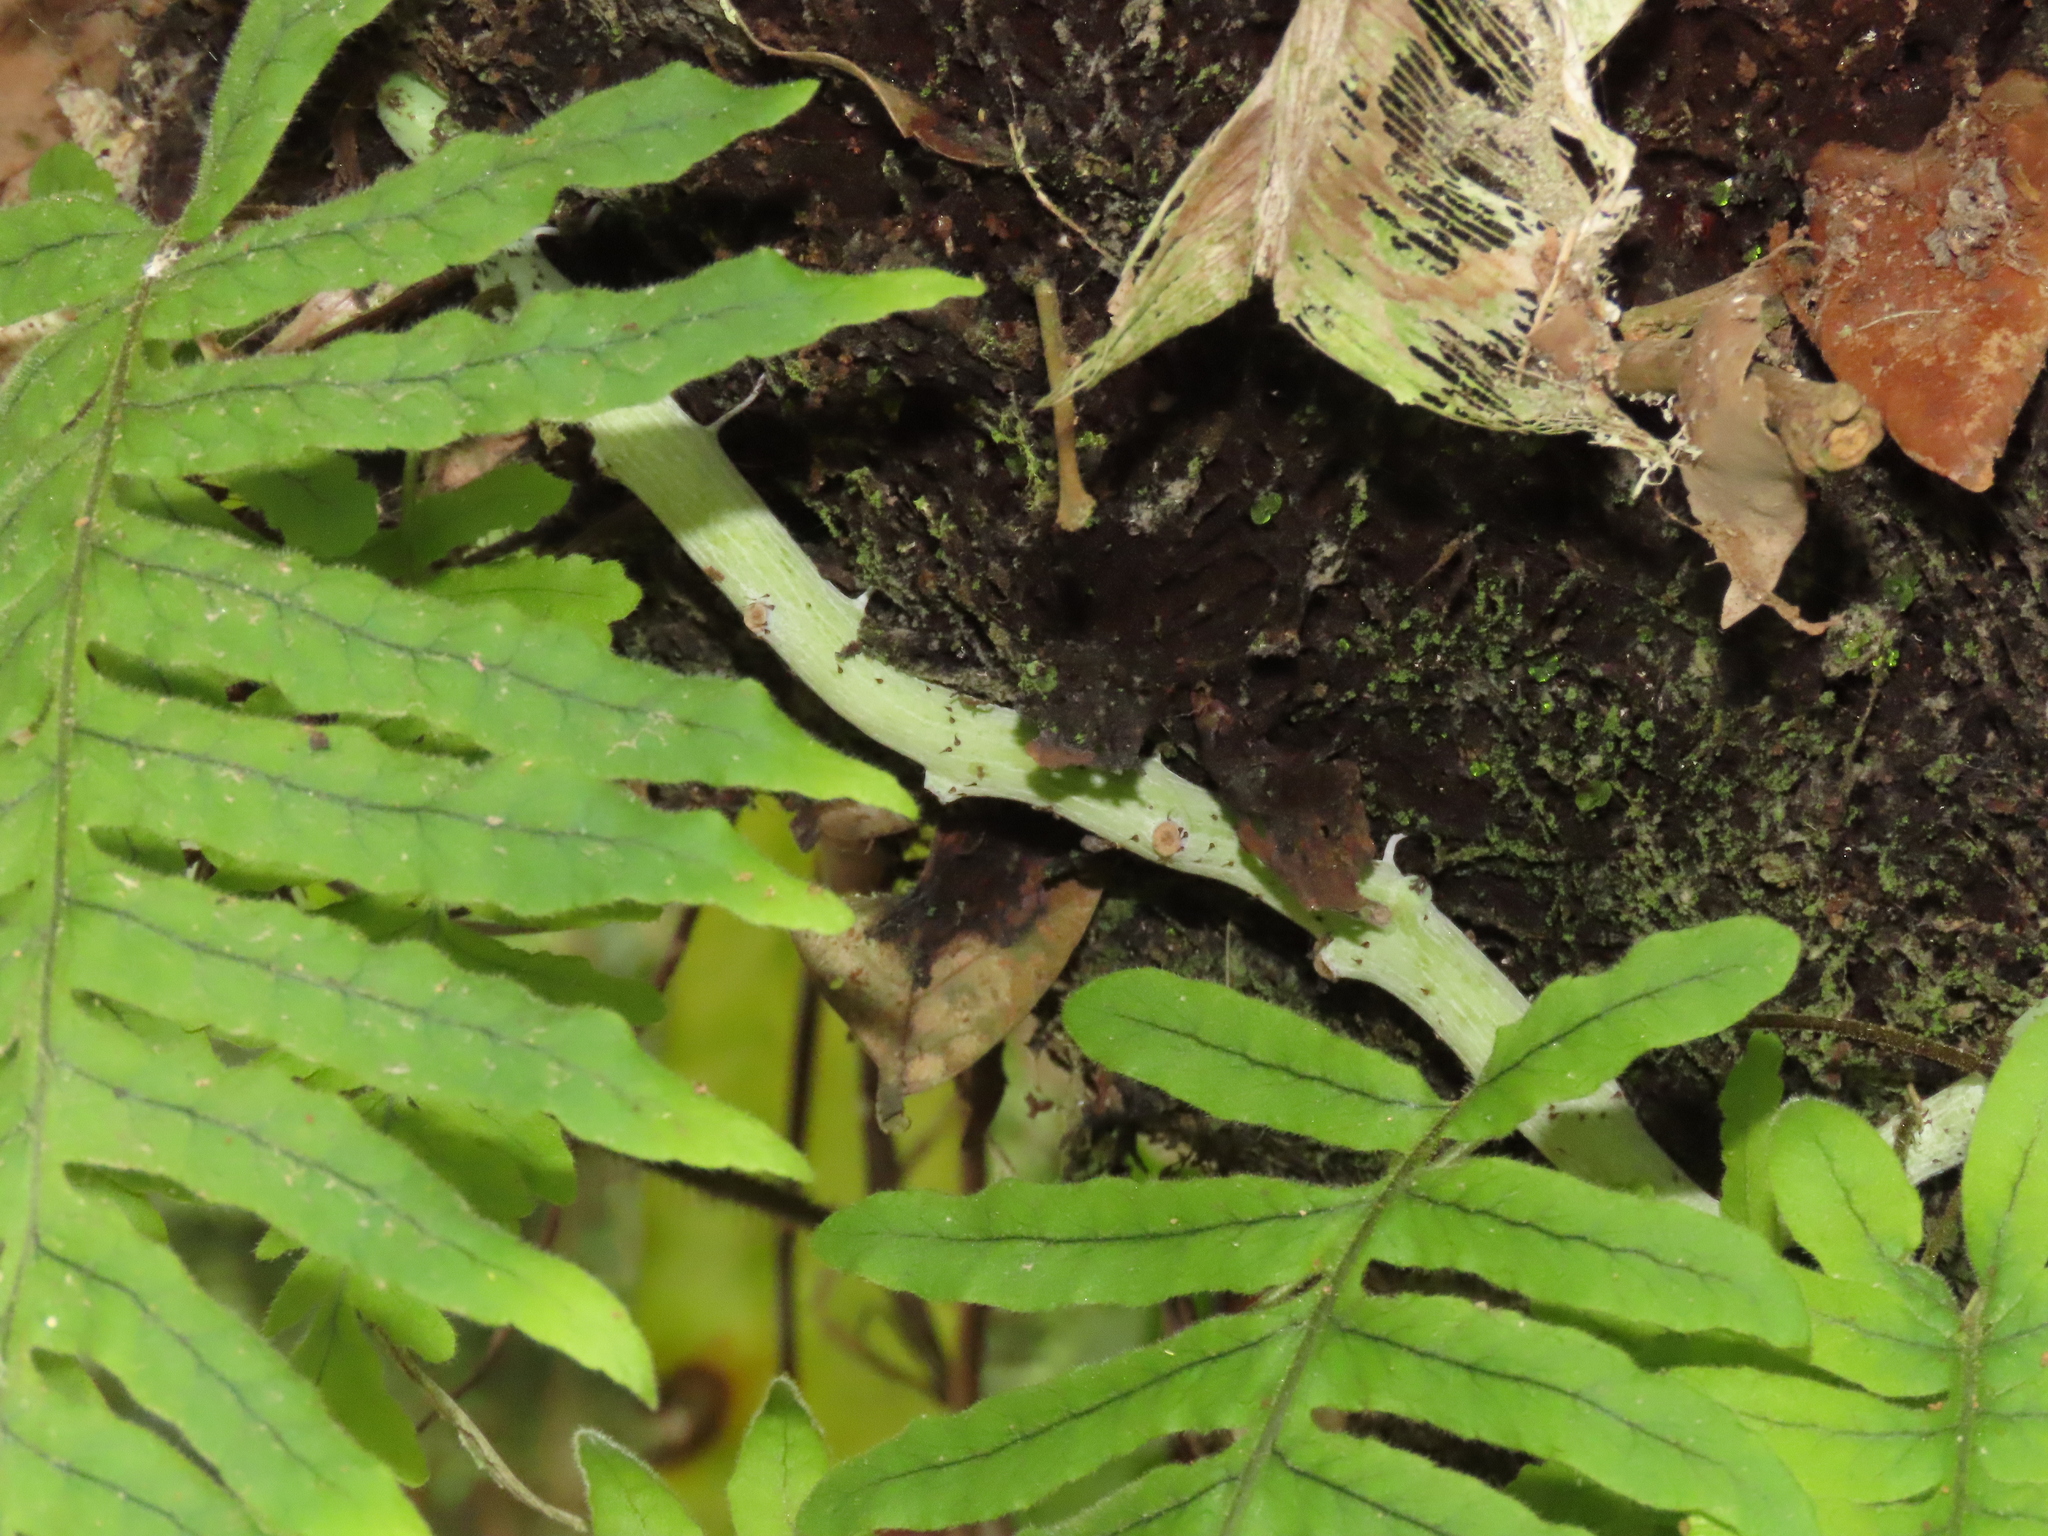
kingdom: Plantae
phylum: Tracheophyta
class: Polypodiopsida
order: Polypodiales
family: Polypodiaceae
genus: Goniophlebium
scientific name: Goniophlebium formosanum
